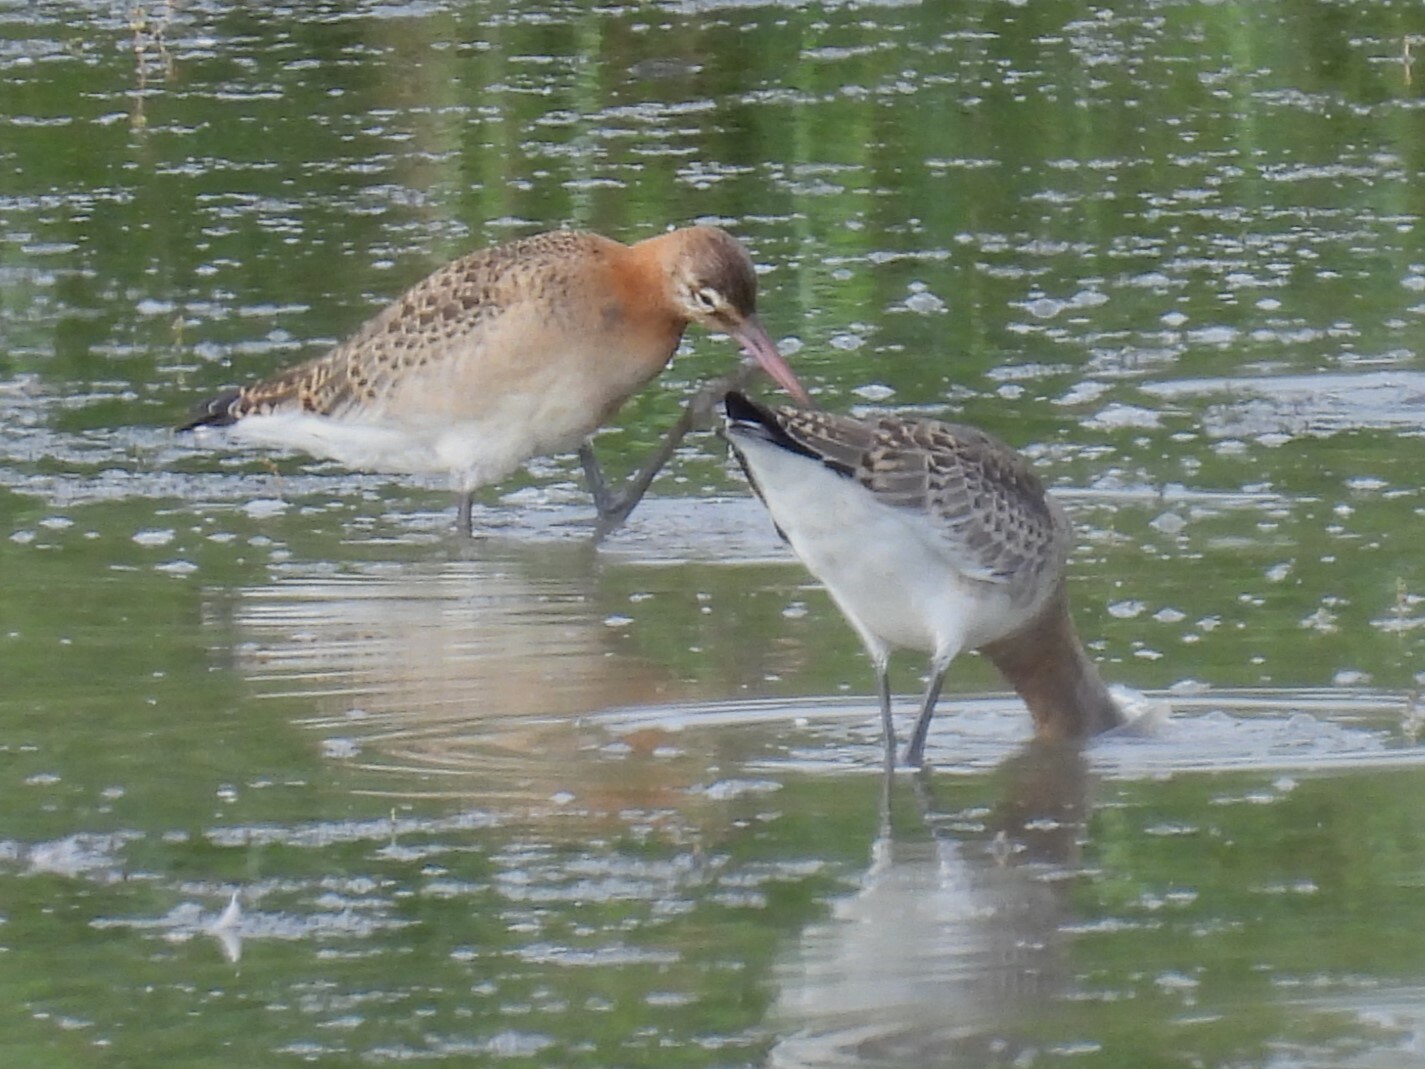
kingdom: Animalia
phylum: Chordata
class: Aves
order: Charadriiformes
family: Scolopacidae
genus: Limosa
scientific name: Limosa limosa
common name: Black-tailed godwit
